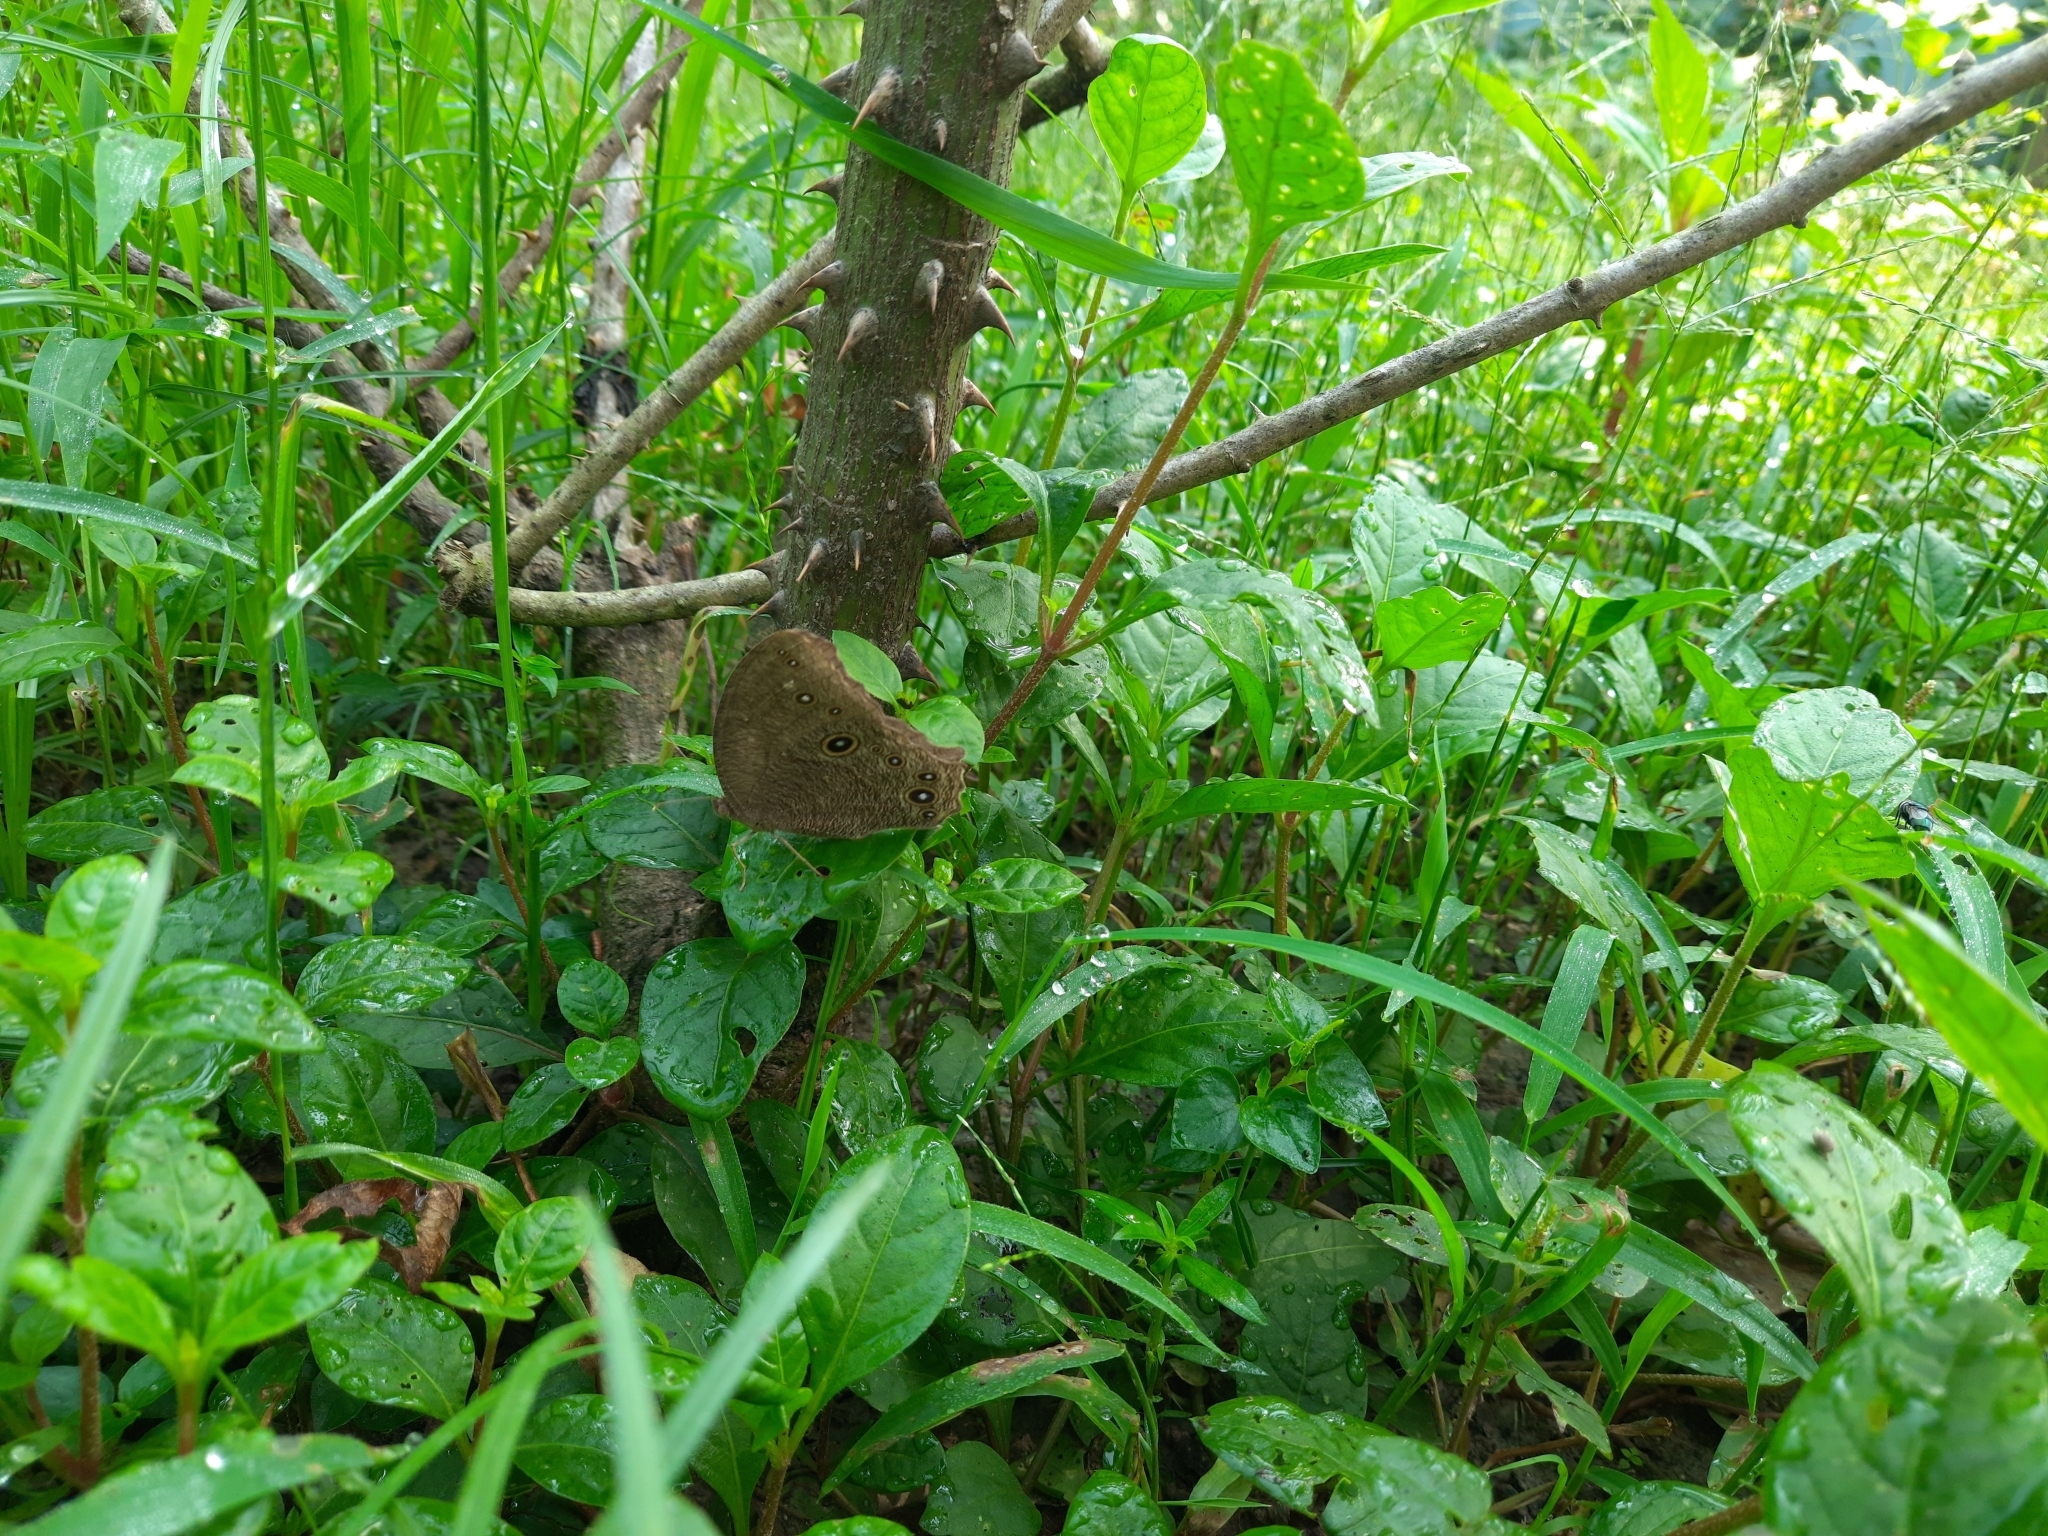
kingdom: Animalia
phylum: Arthropoda
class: Insecta
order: Lepidoptera
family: Nymphalidae
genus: Melanitis
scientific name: Melanitis leda
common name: Twilight brown
